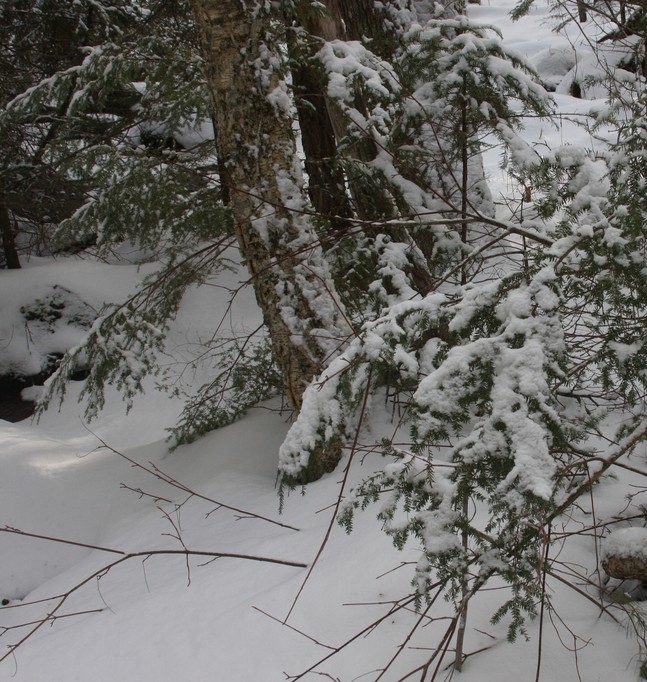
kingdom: Plantae
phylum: Tracheophyta
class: Magnoliopsida
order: Fagales
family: Betulaceae
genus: Betula
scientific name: Betula alleghaniensis
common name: Yellow birch
